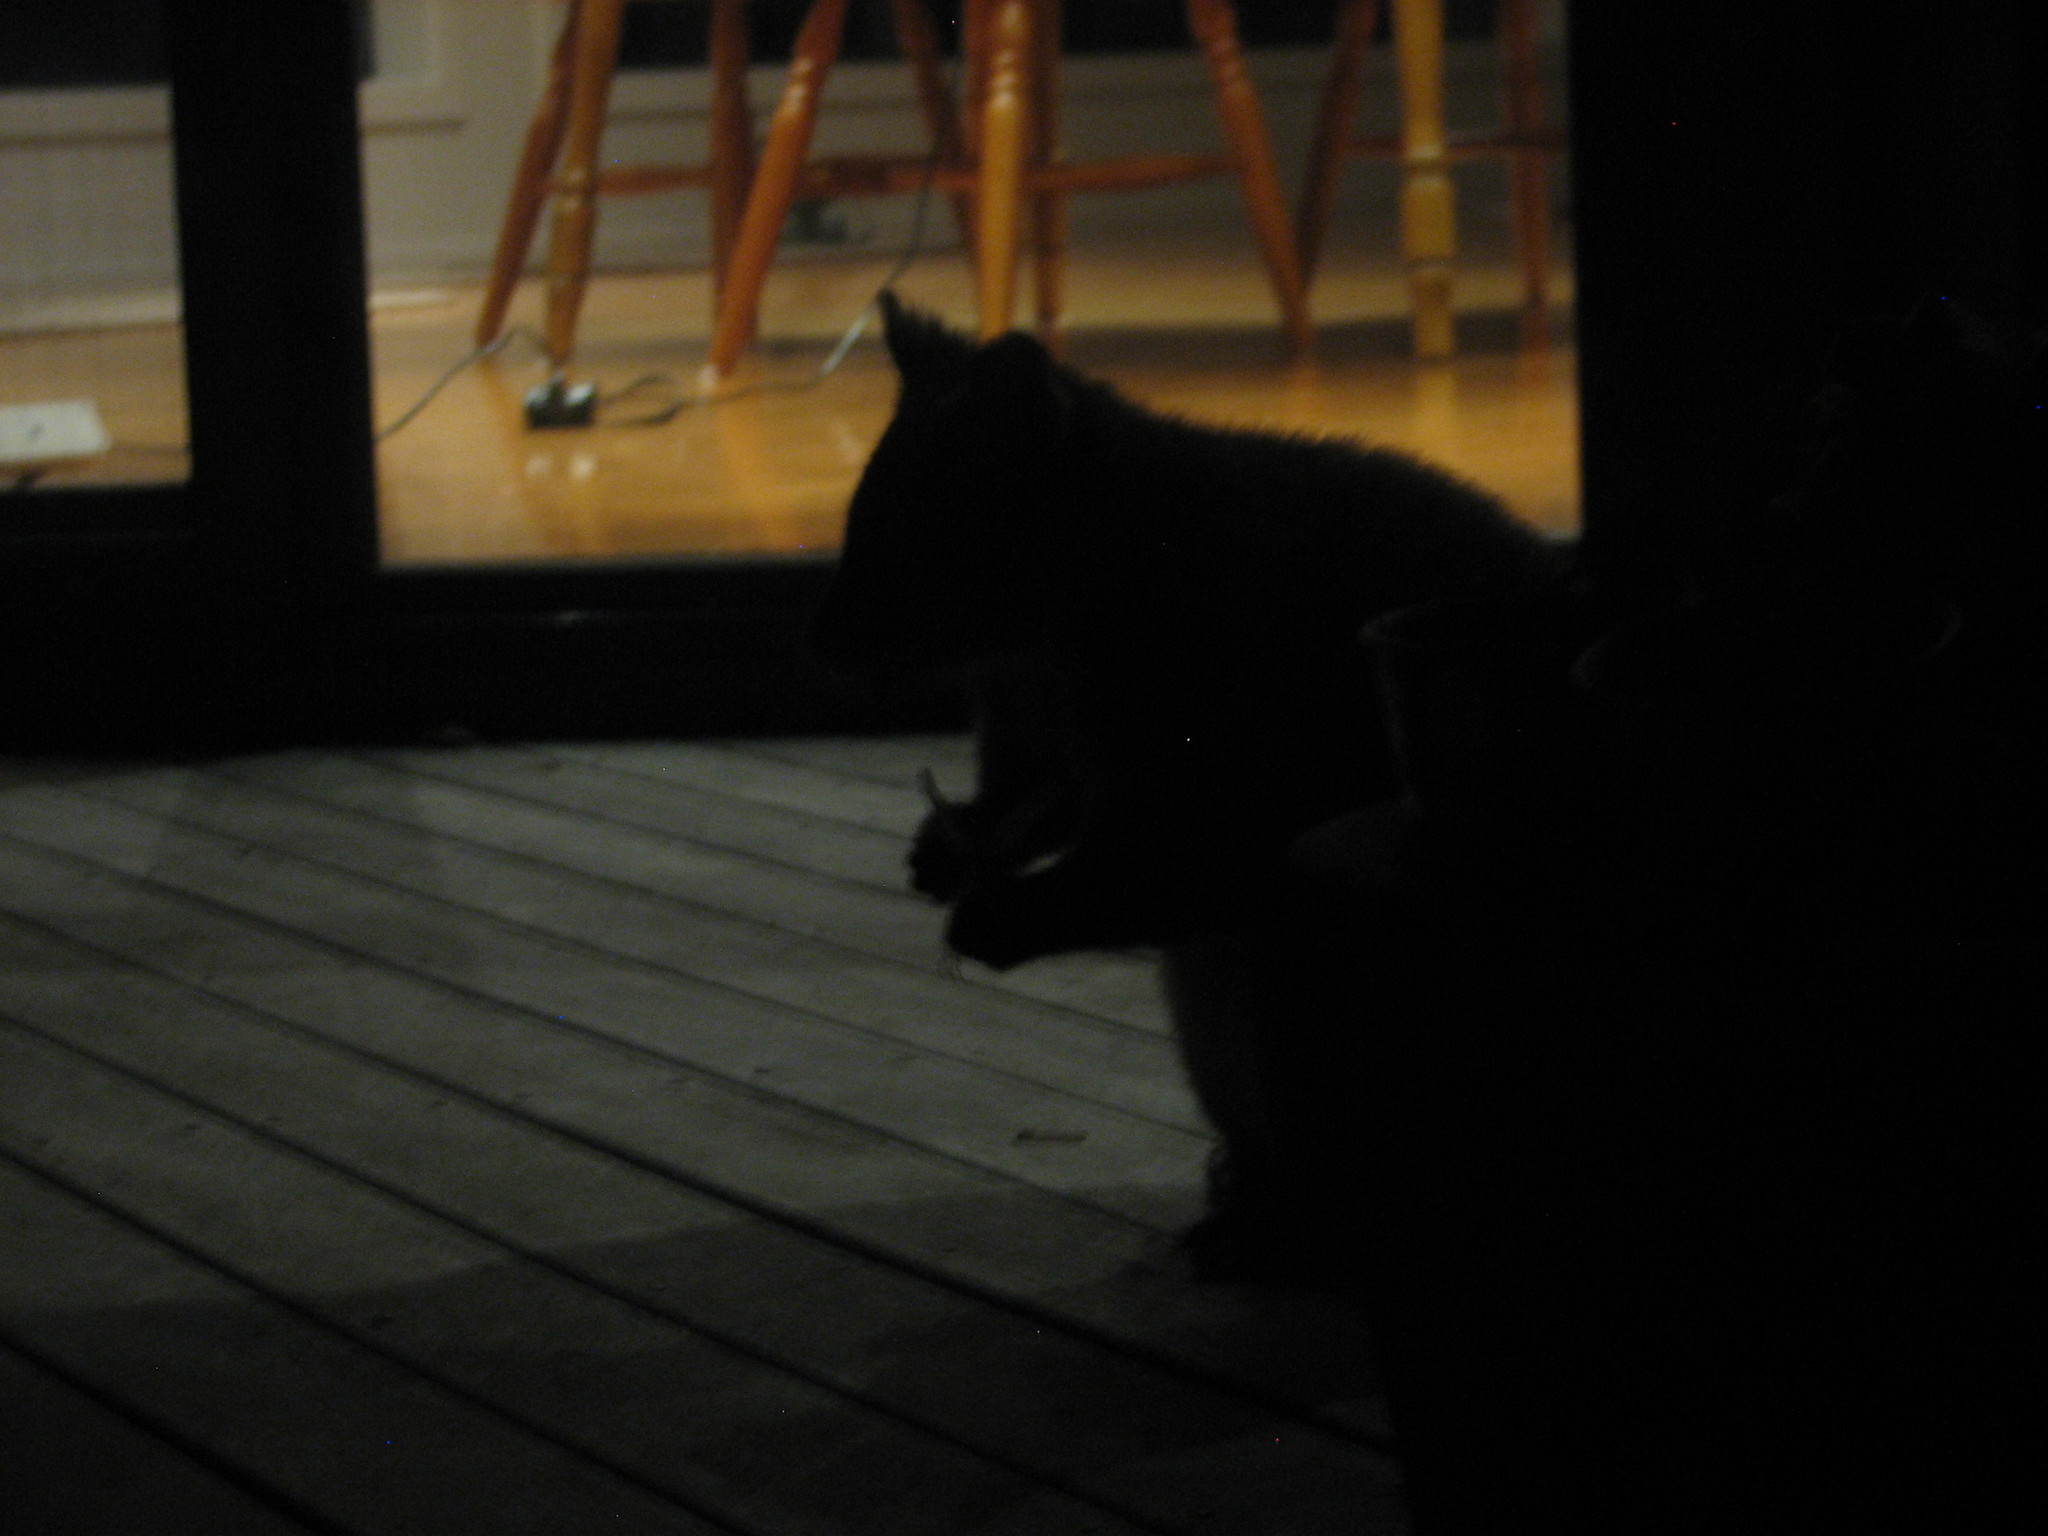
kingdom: Animalia
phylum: Chordata
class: Mammalia
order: Diprotodontia
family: Phalangeridae
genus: Trichosurus
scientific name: Trichosurus vulpecula
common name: Common brushtail
